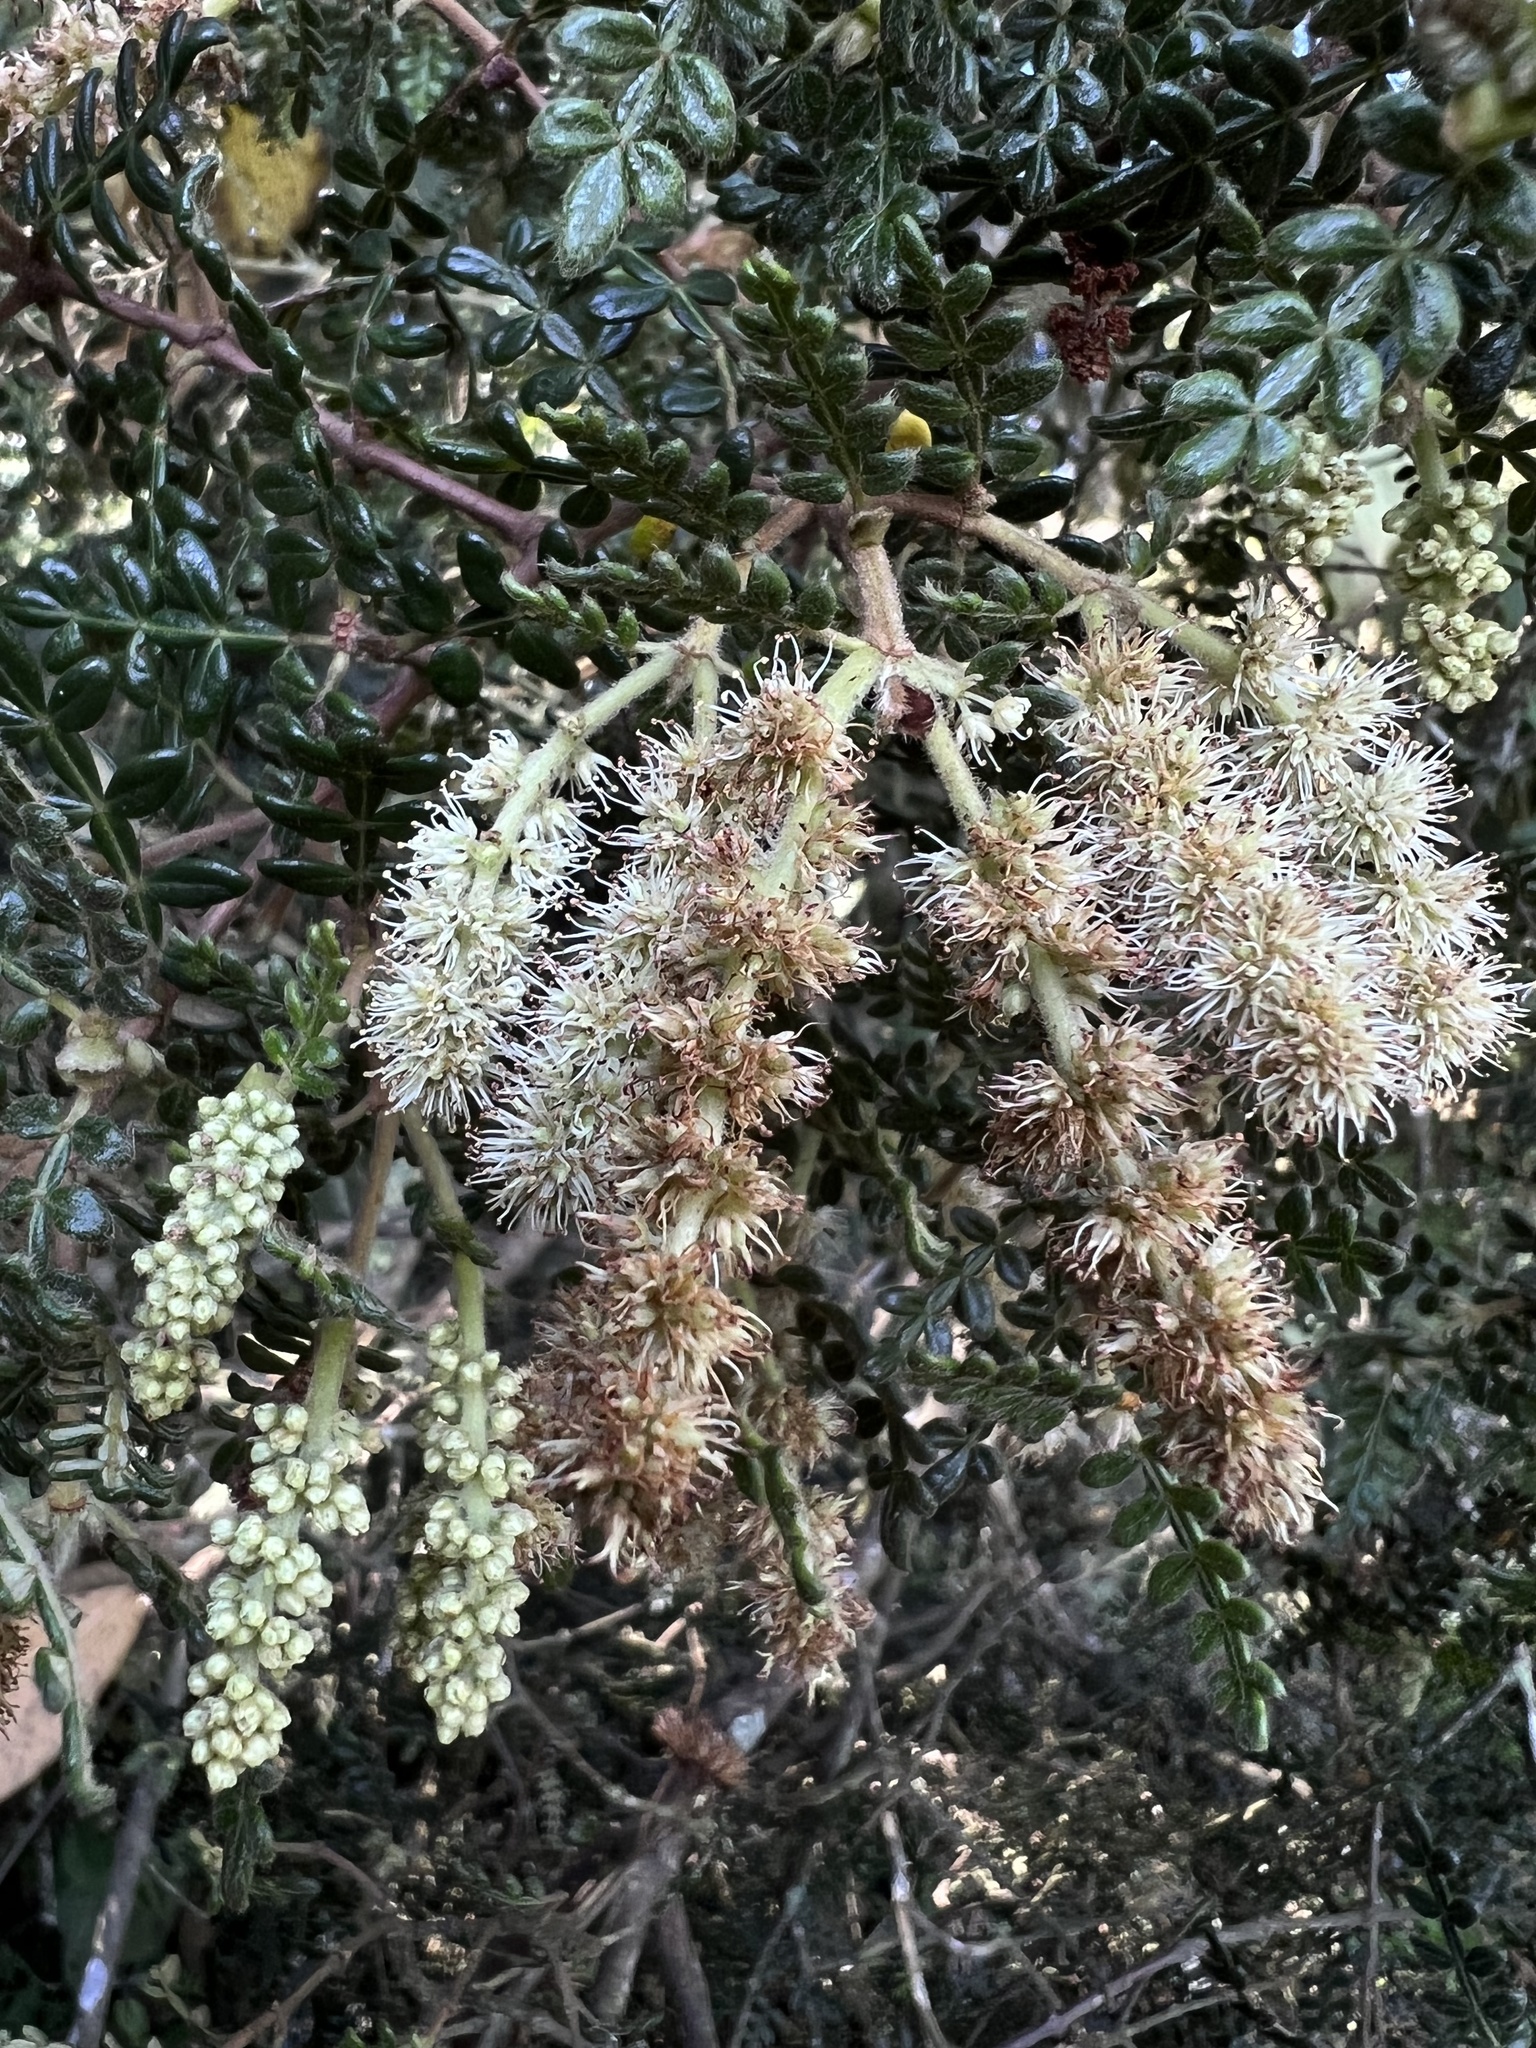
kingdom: Plantae
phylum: Tracheophyta
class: Magnoliopsida
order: Oxalidales
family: Cunoniaceae
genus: Weinmannia
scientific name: Weinmannia tomentosa
